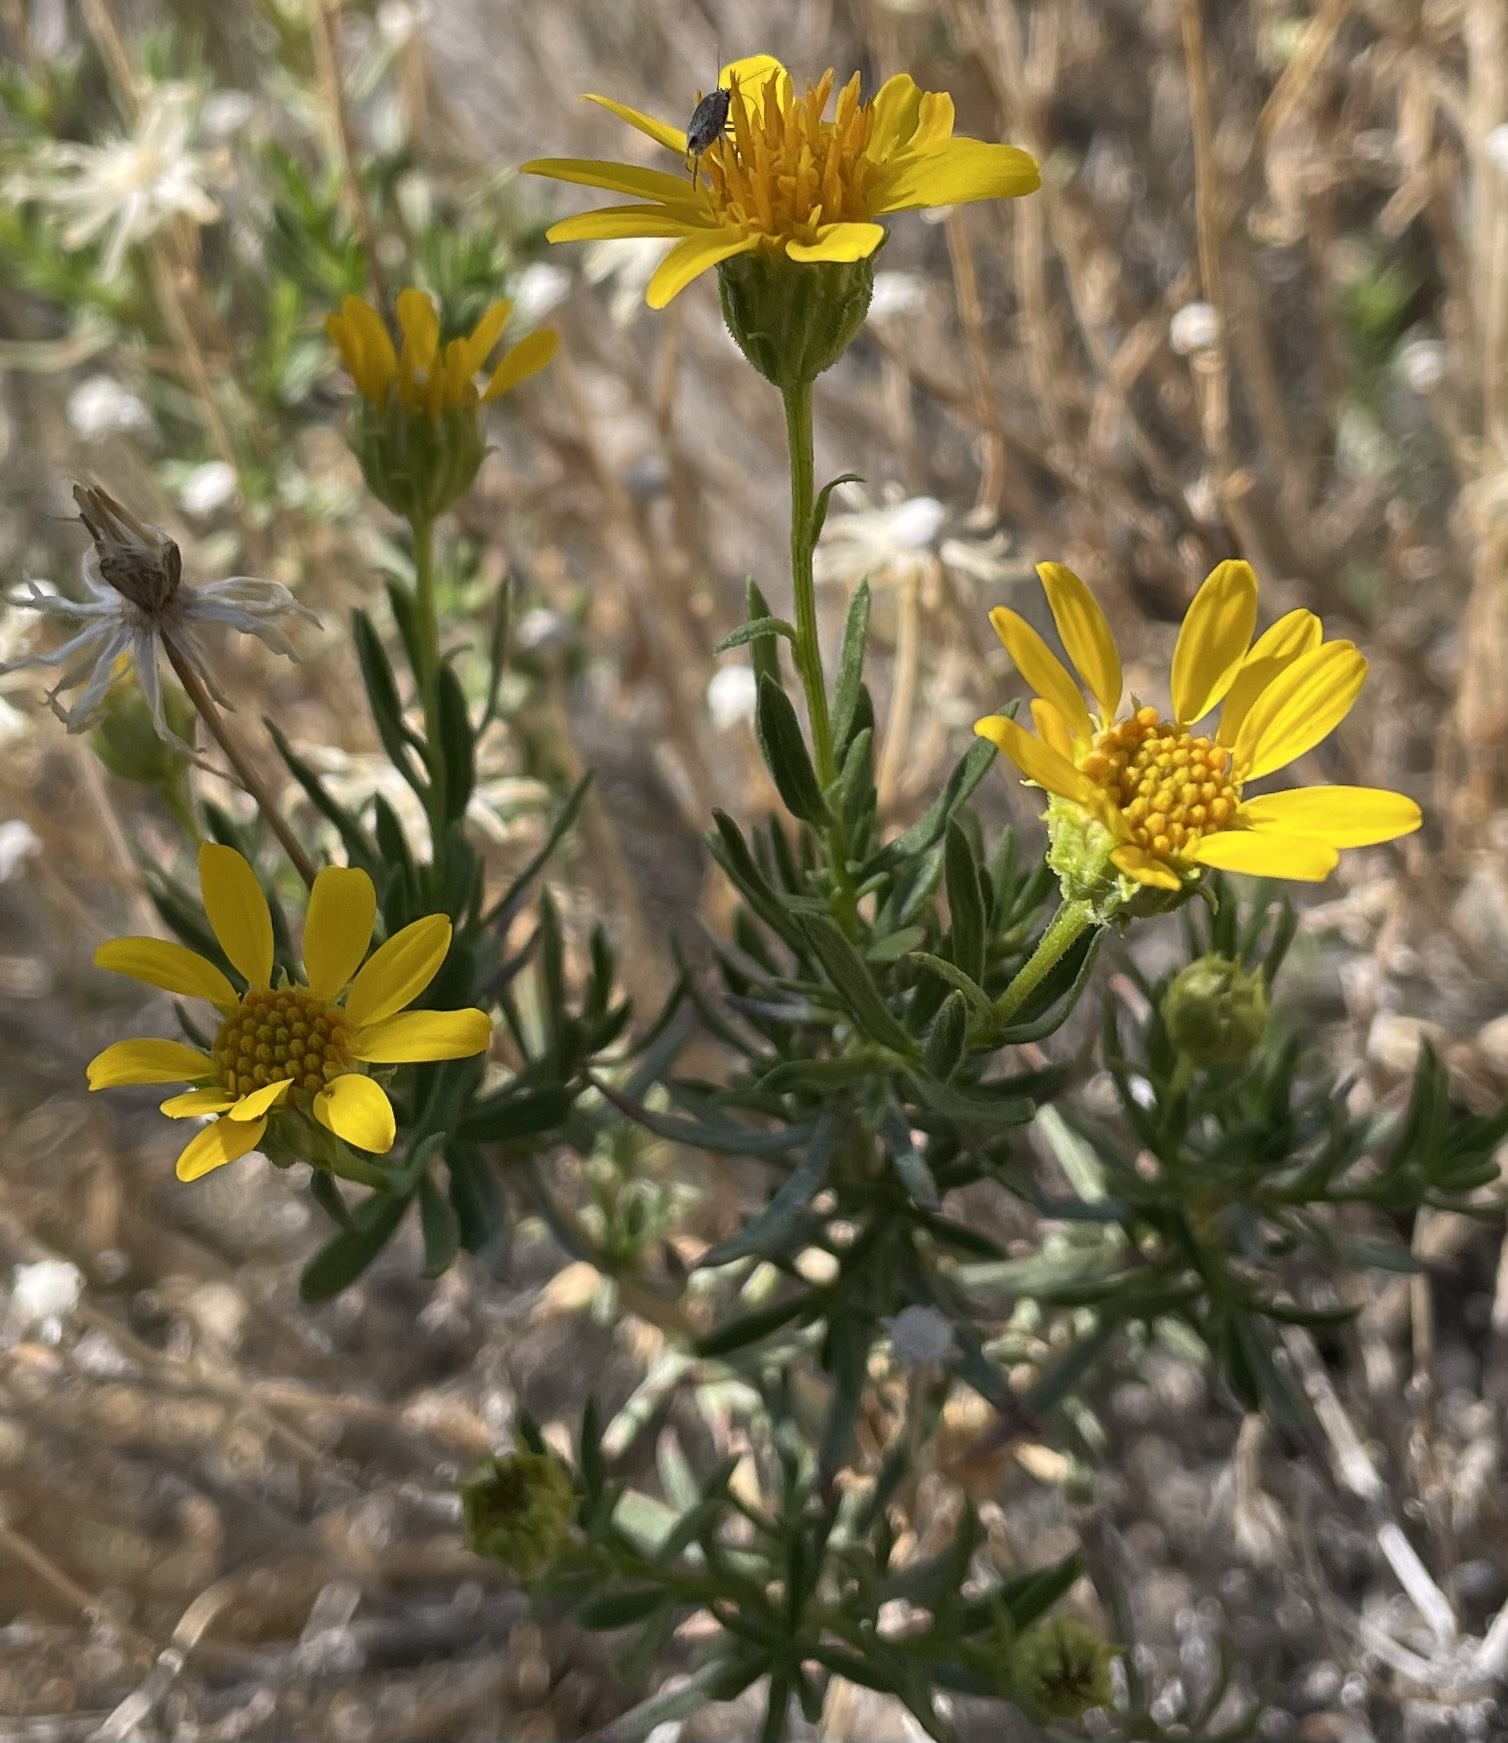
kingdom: Plantae
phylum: Tracheophyta
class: Magnoliopsida
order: Asterales
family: Asteraceae
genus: Ericameria
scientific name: Ericameria linearifolia
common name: Interior goldenbush
